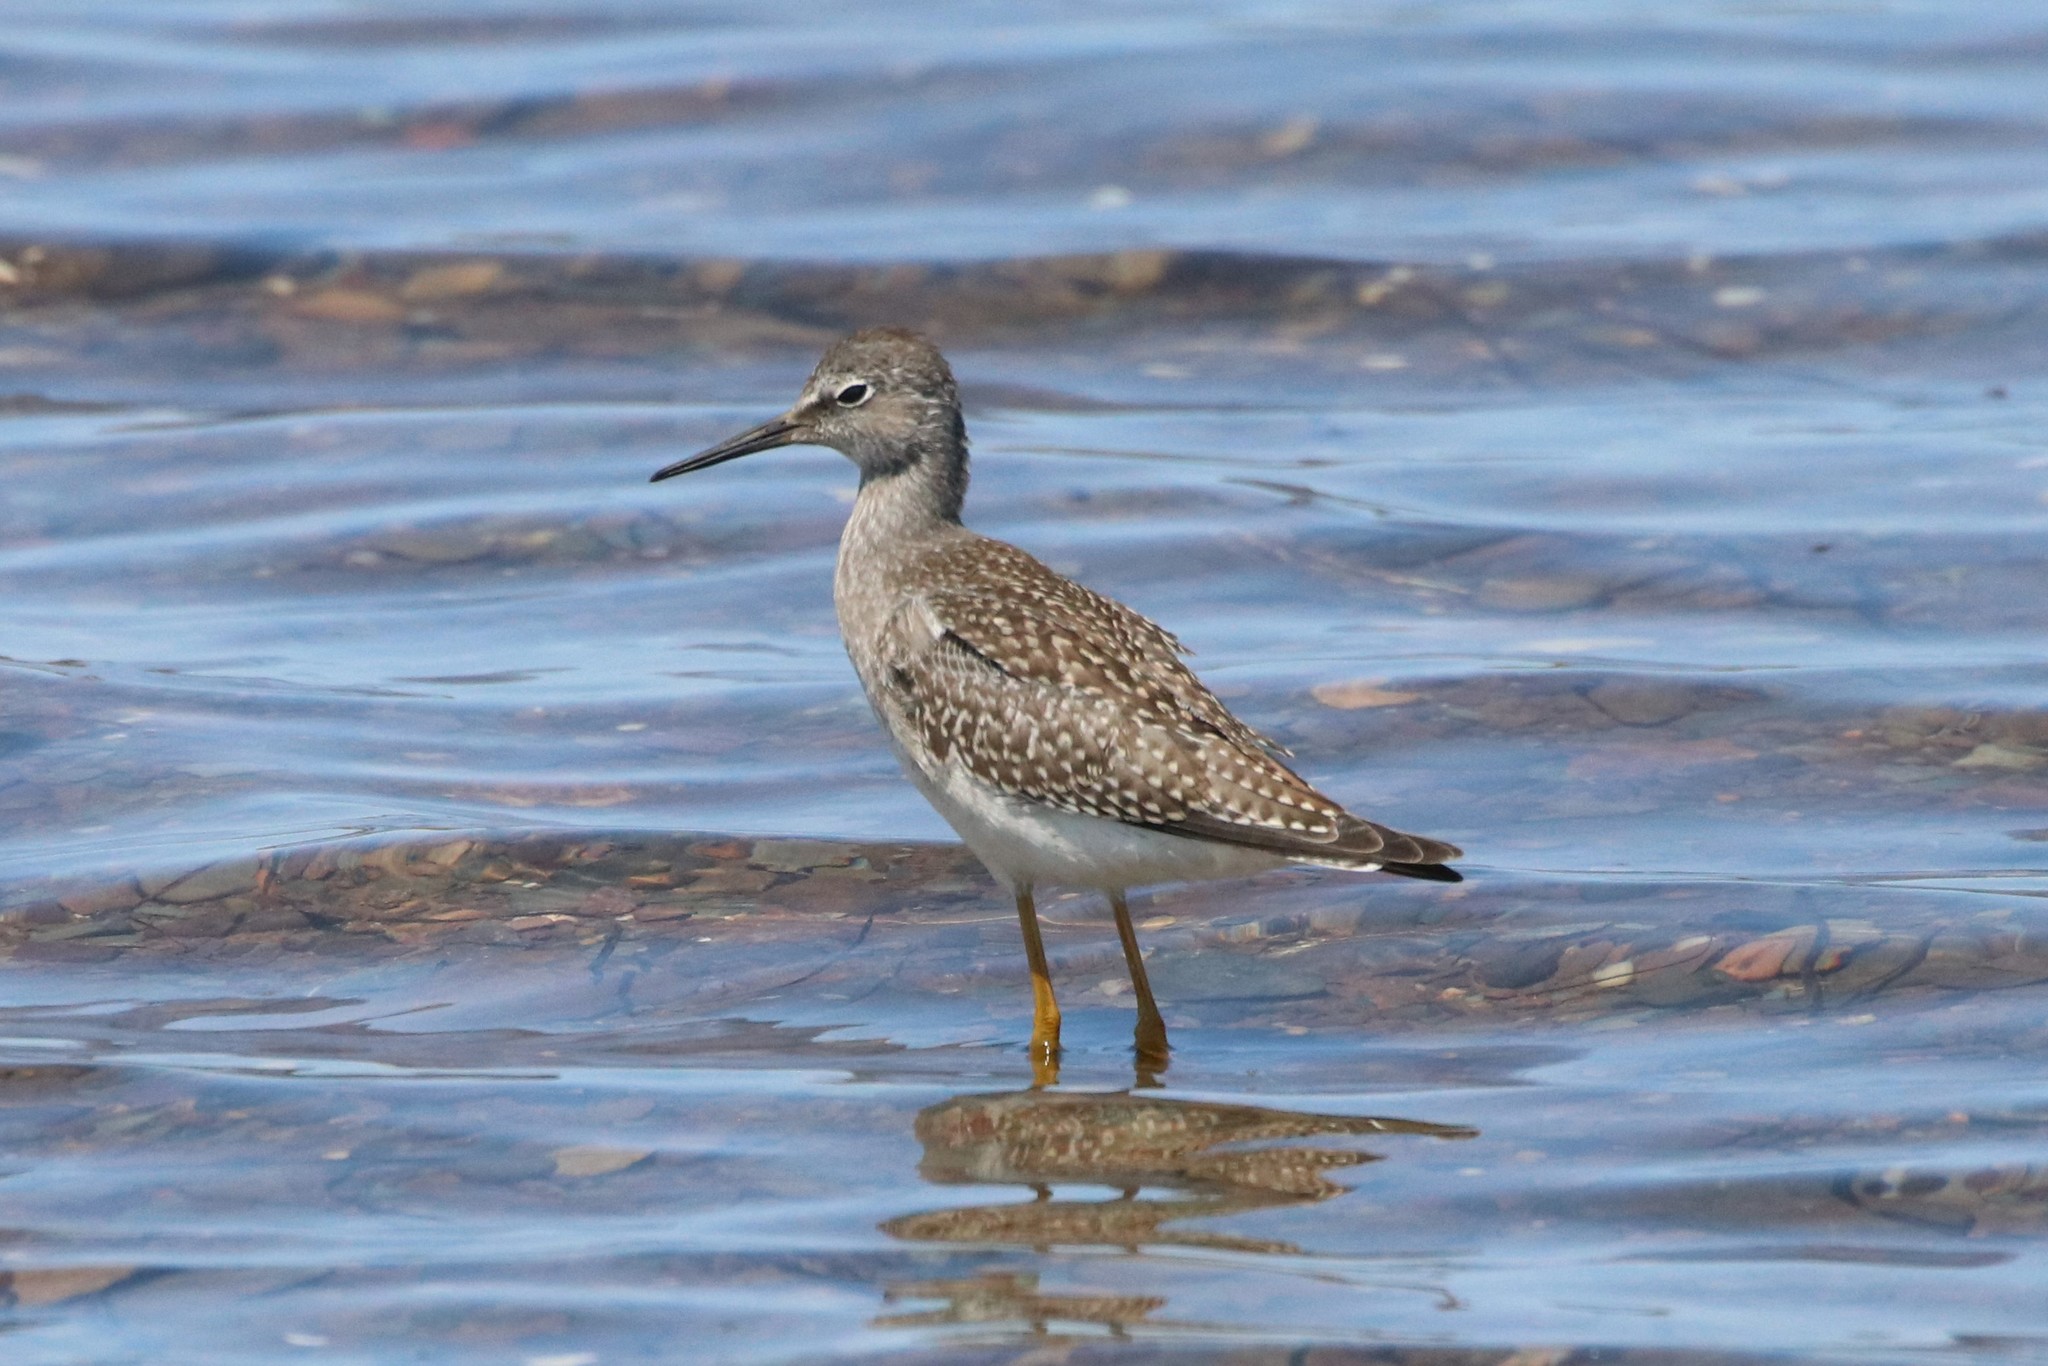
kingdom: Animalia
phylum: Chordata
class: Aves
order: Charadriiformes
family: Scolopacidae
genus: Tringa
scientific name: Tringa flavipes
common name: Lesser yellowlegs
